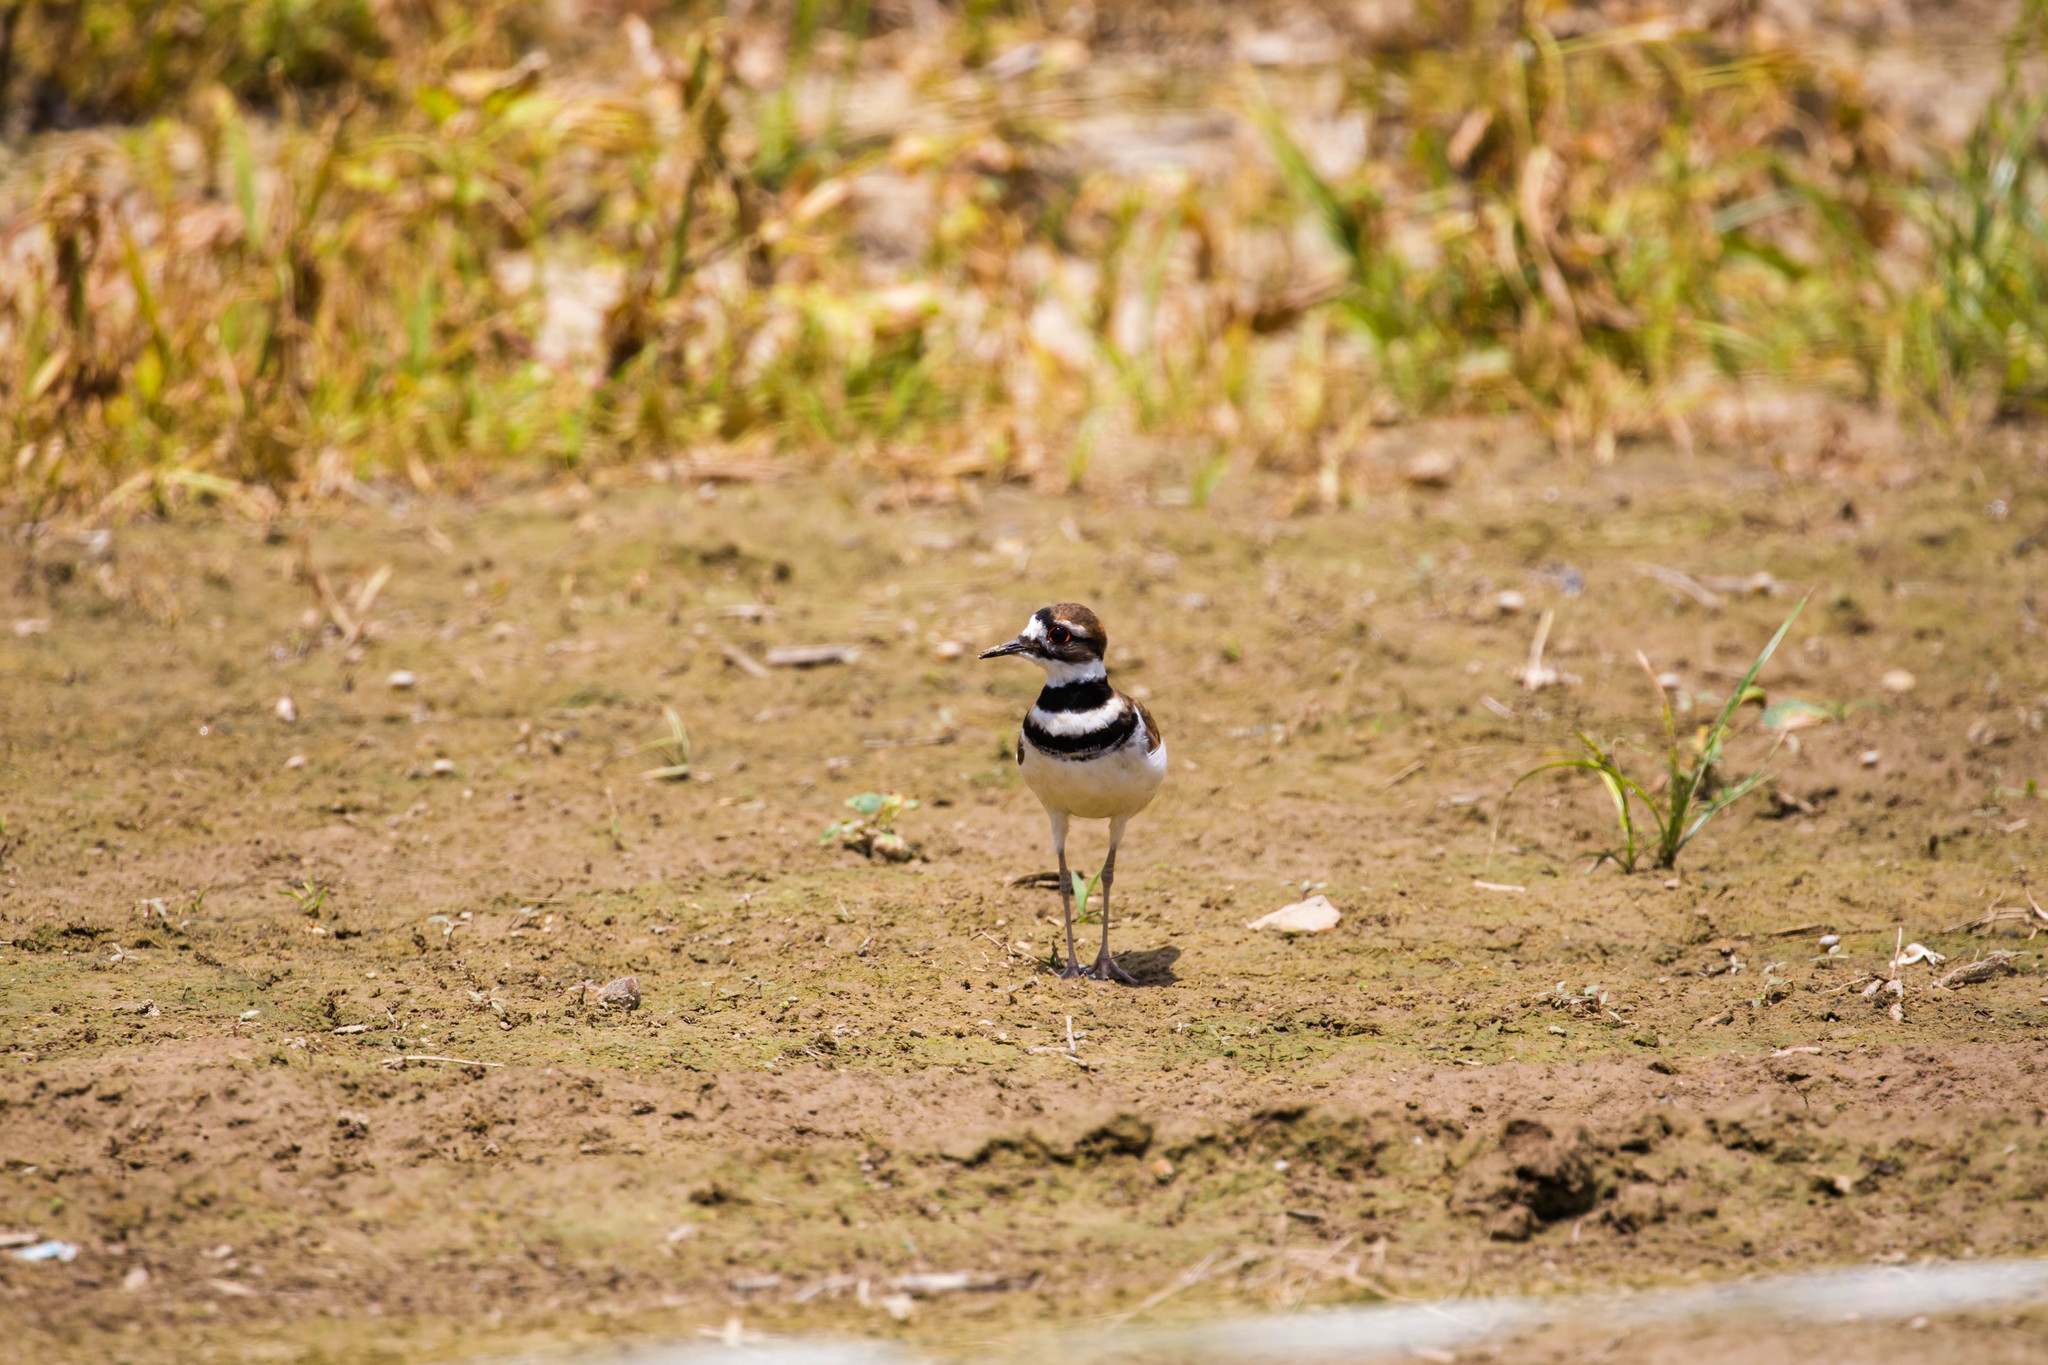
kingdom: Animalia
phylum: Chordata
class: Aves
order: Charadriiformes
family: Charadriidae
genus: Charadrius
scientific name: Charadrius vociferus
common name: Killdeer
